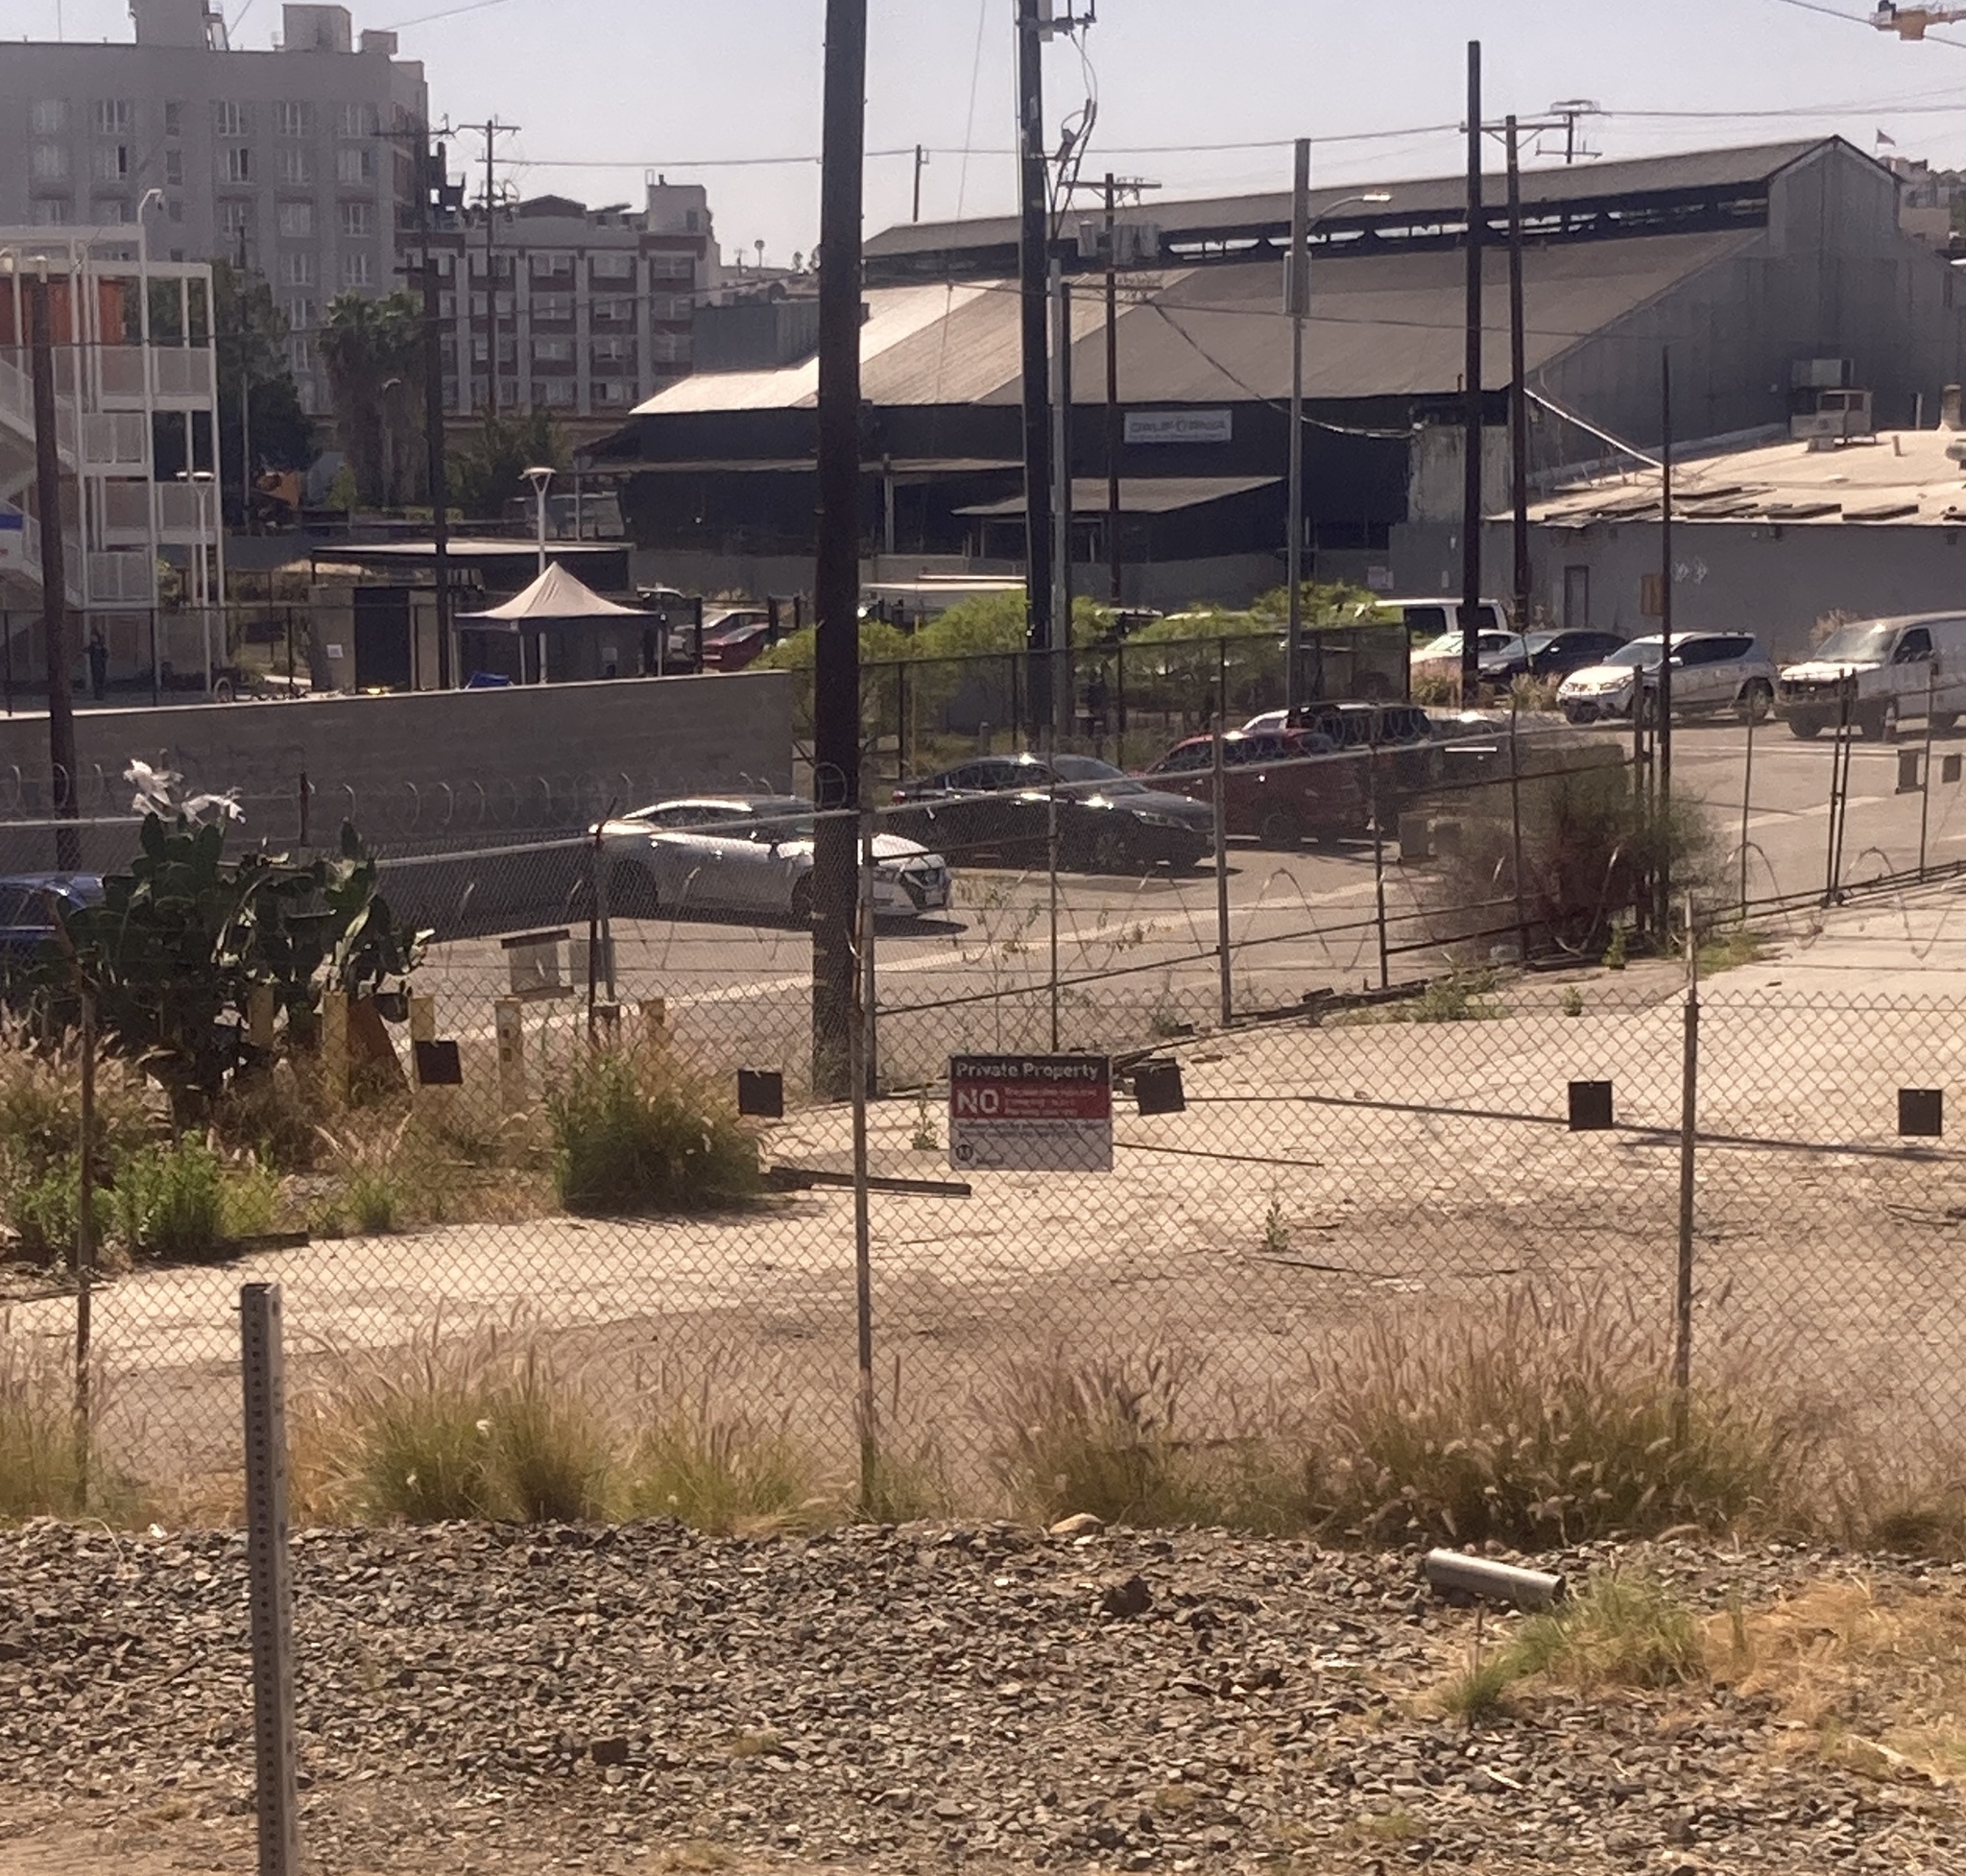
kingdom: Plantae
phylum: Tracheophyta
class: Liliopsida
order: Poales
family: Poaceae
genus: Cenchrus
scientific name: Cenchrus setaceus
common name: Crimson fountaingrass
